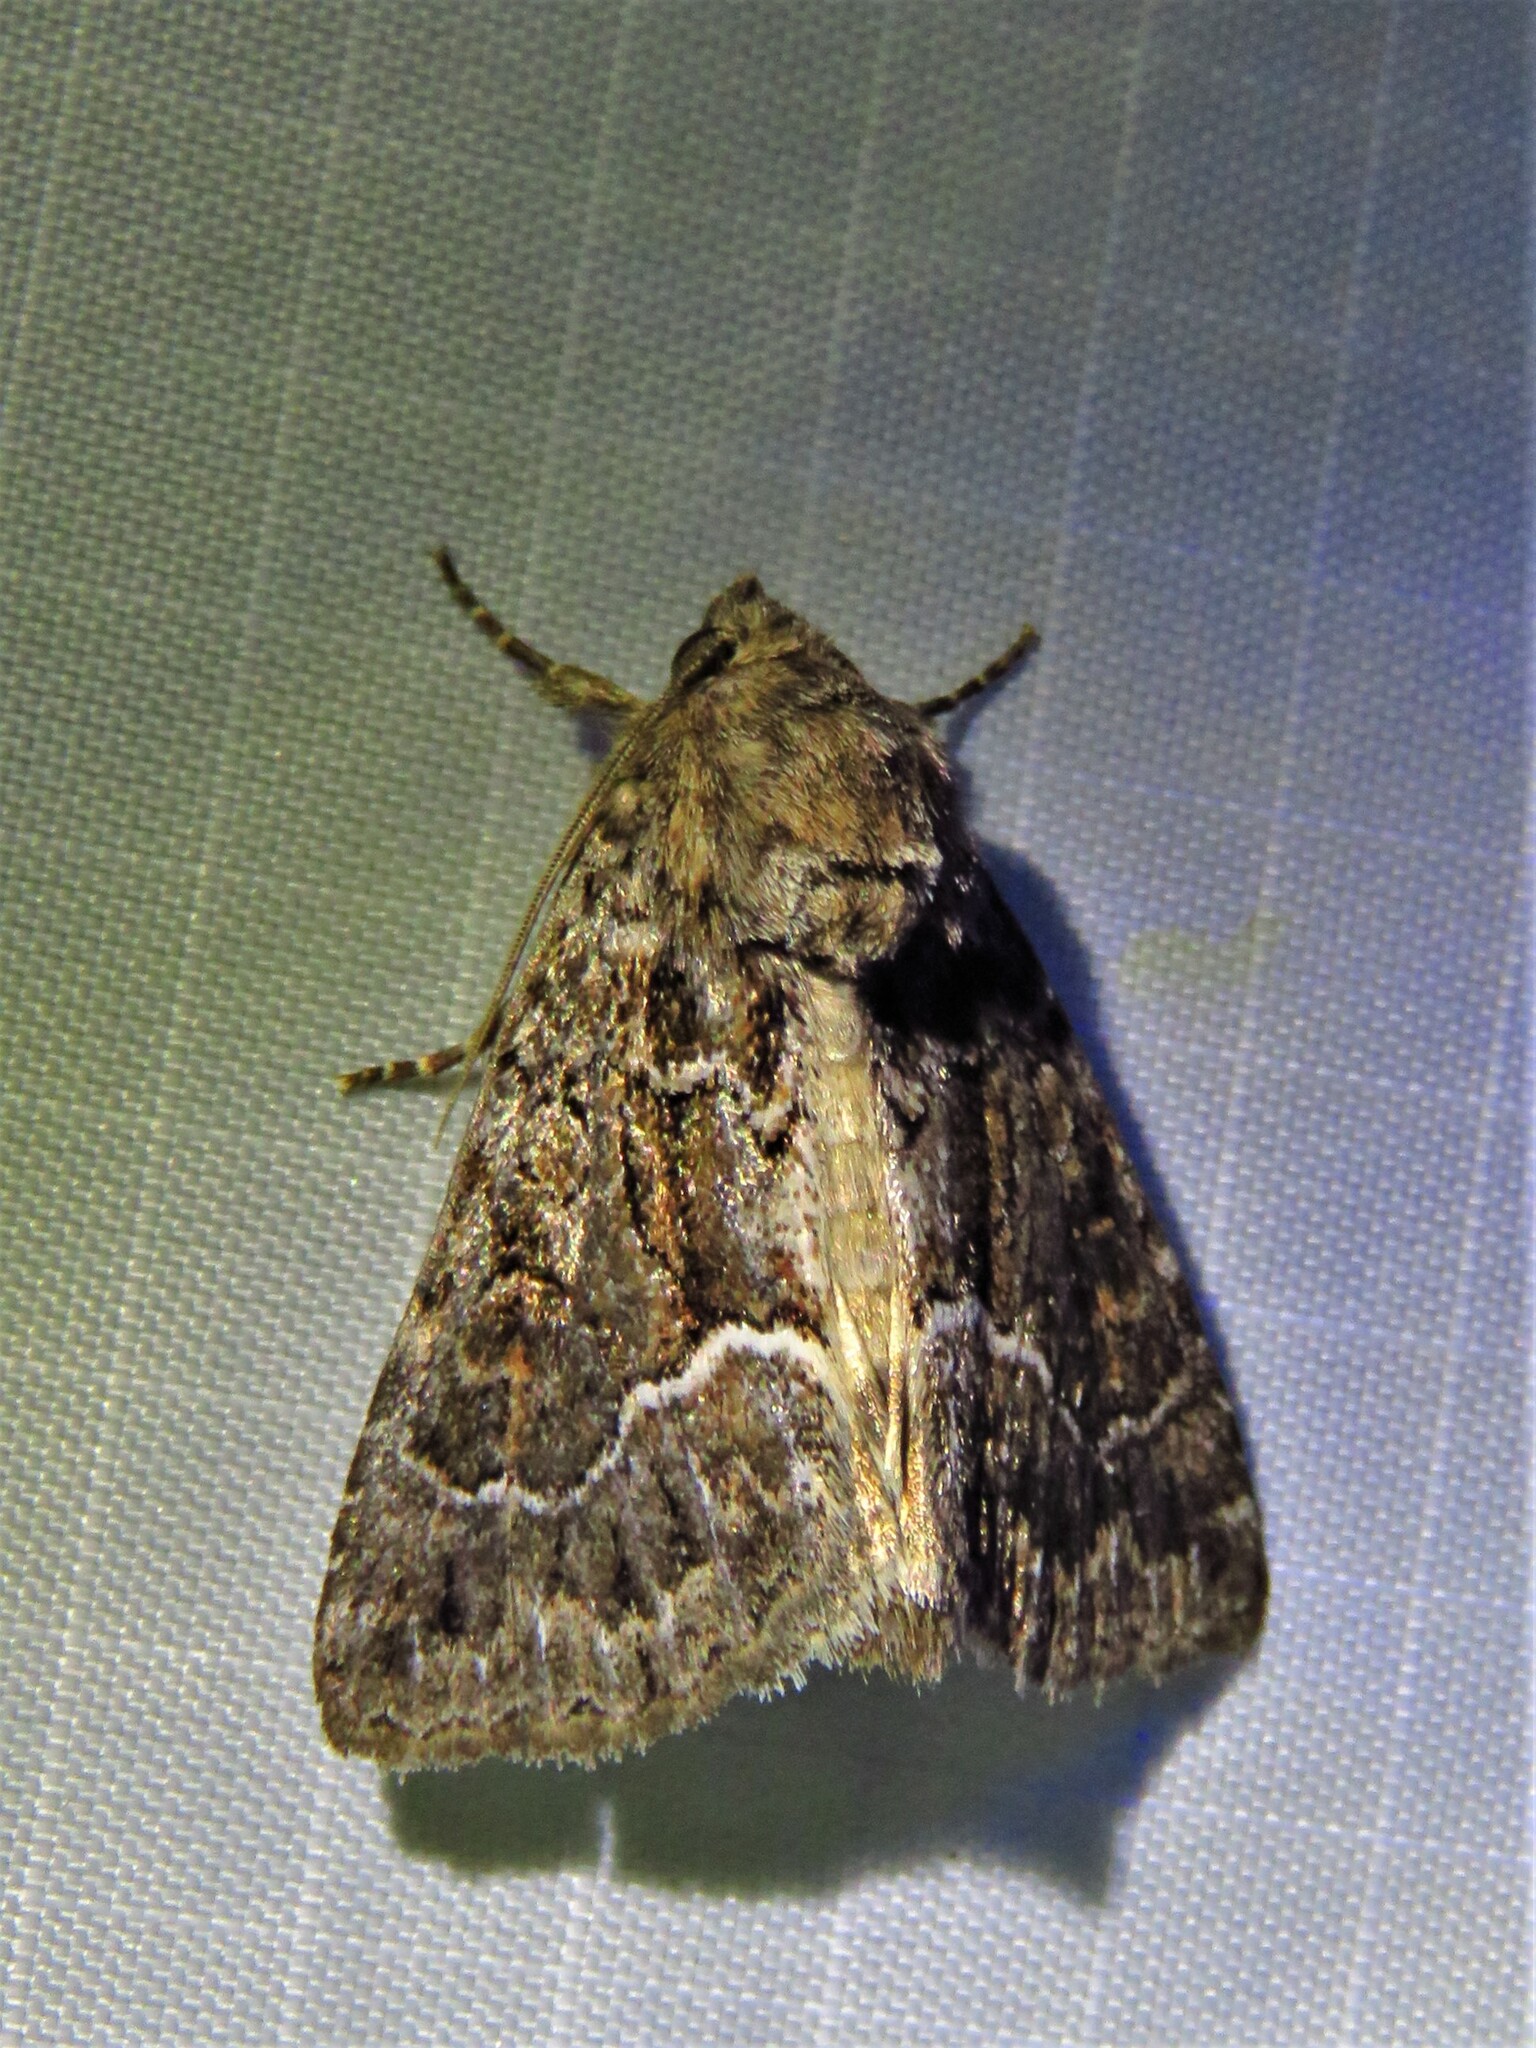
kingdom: Animalia
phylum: Arthropoda
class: Insecta
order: Lepidoptera
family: Noctuidae
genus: Thalpophila
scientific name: Thalpophila matura
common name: Straw underwing
